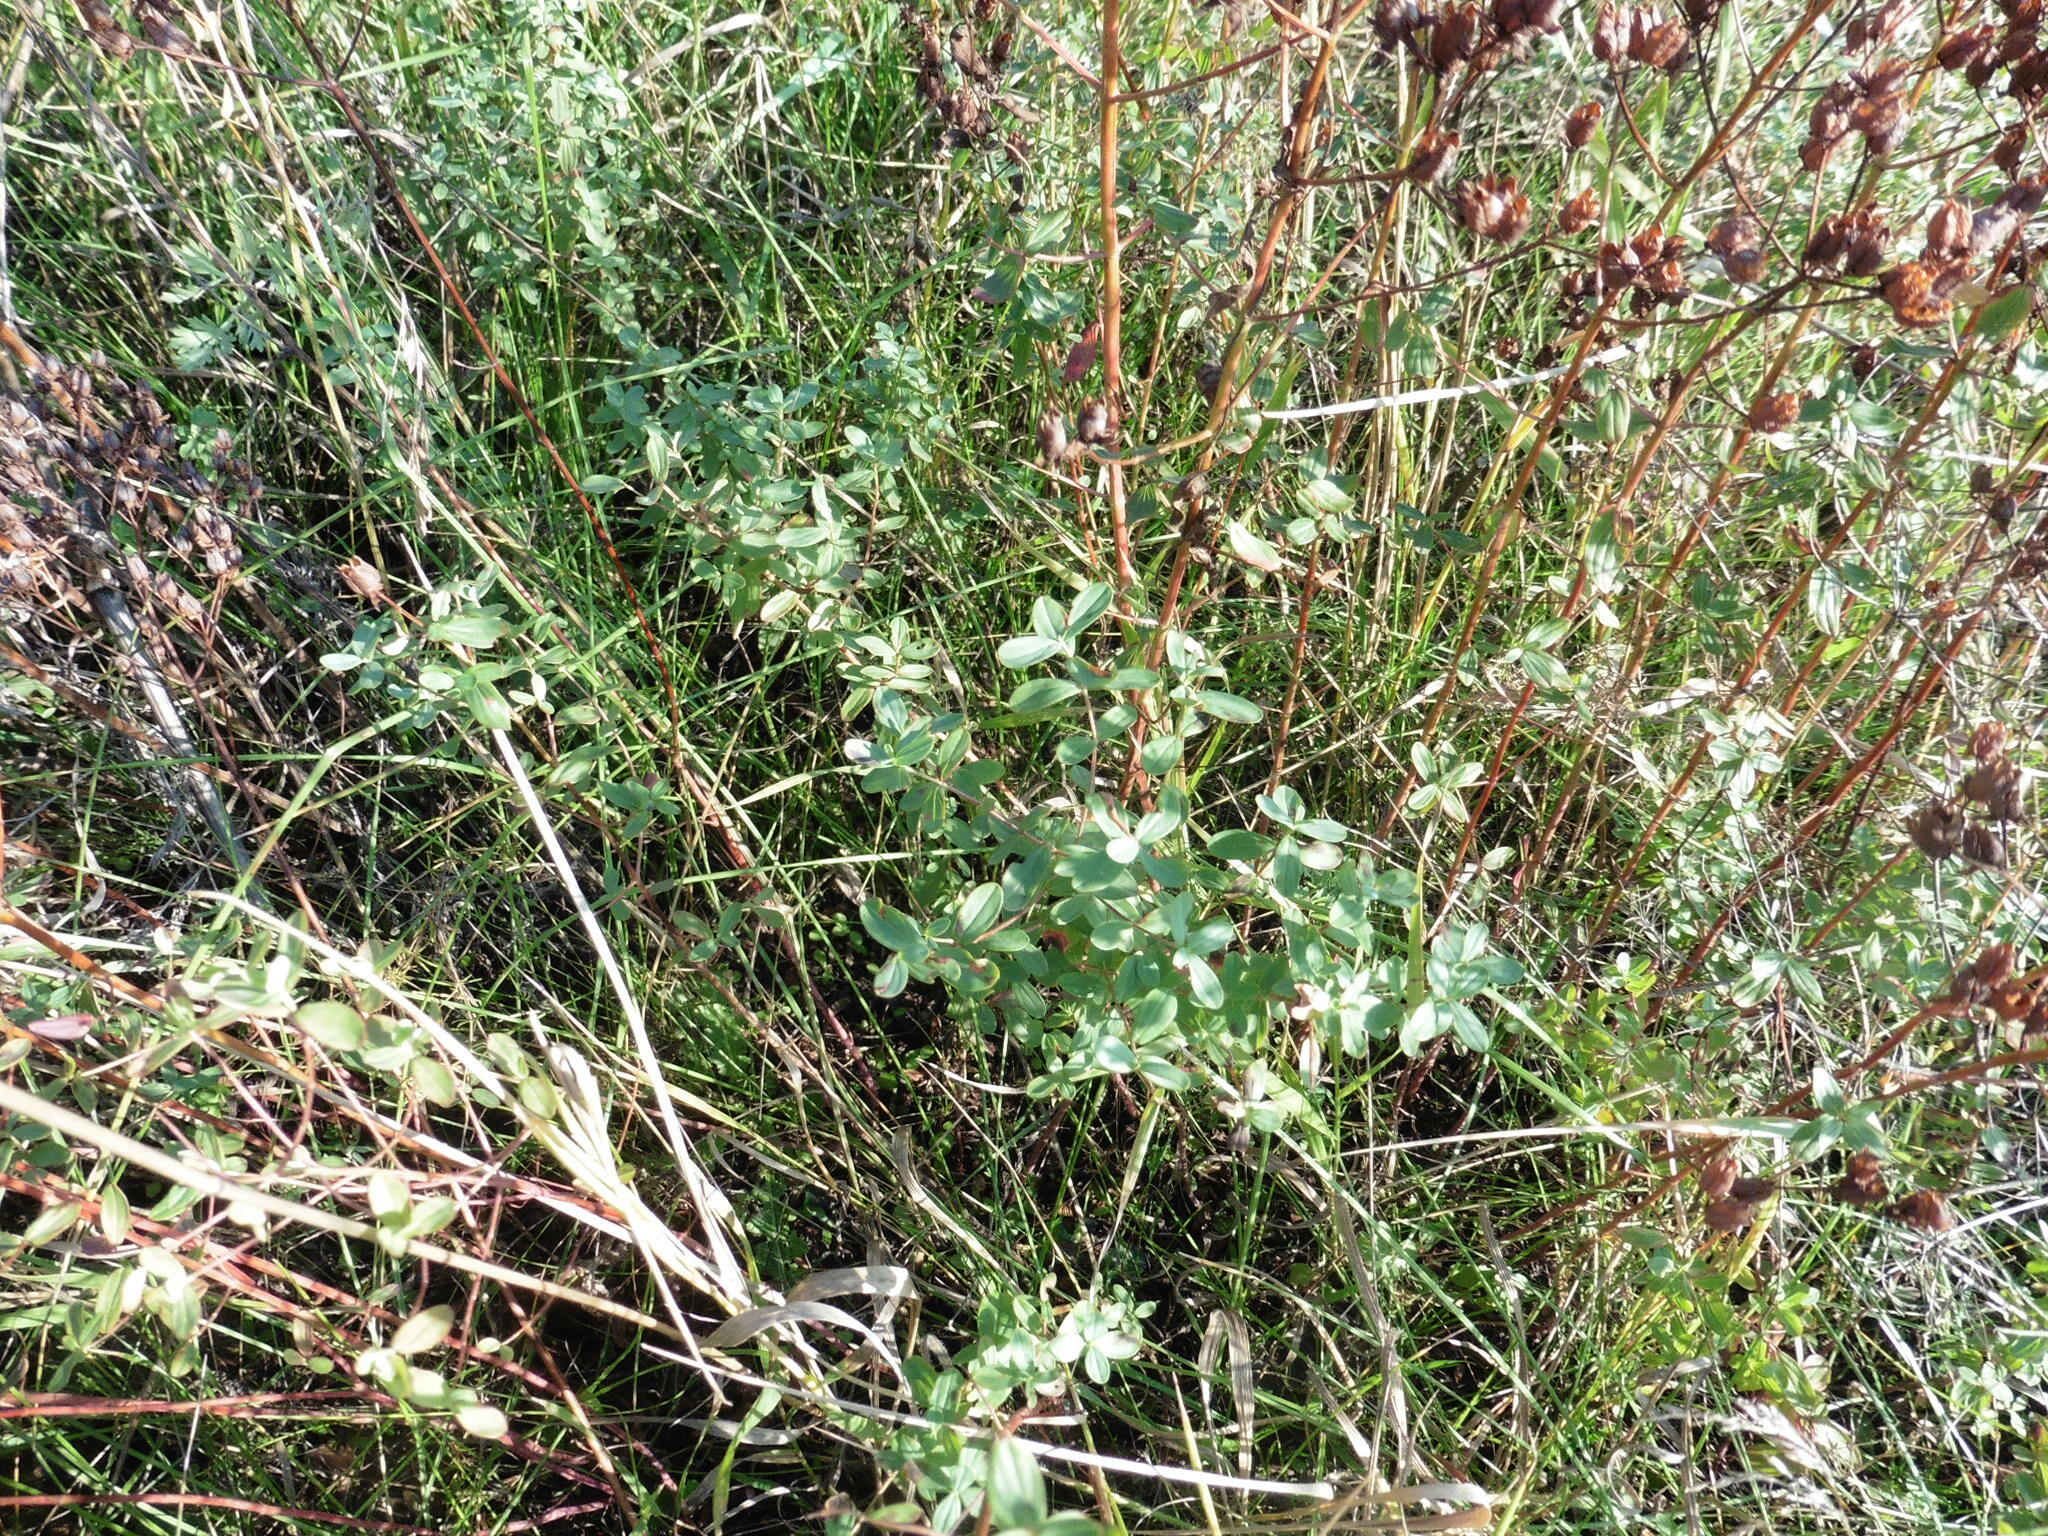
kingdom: Plantae
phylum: Tracheophyta
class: Magnoliopsida
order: Malpighiales
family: Hypericaceae
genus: Hypericum
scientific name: Hypericum perforatum
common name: Common st. johnswort
